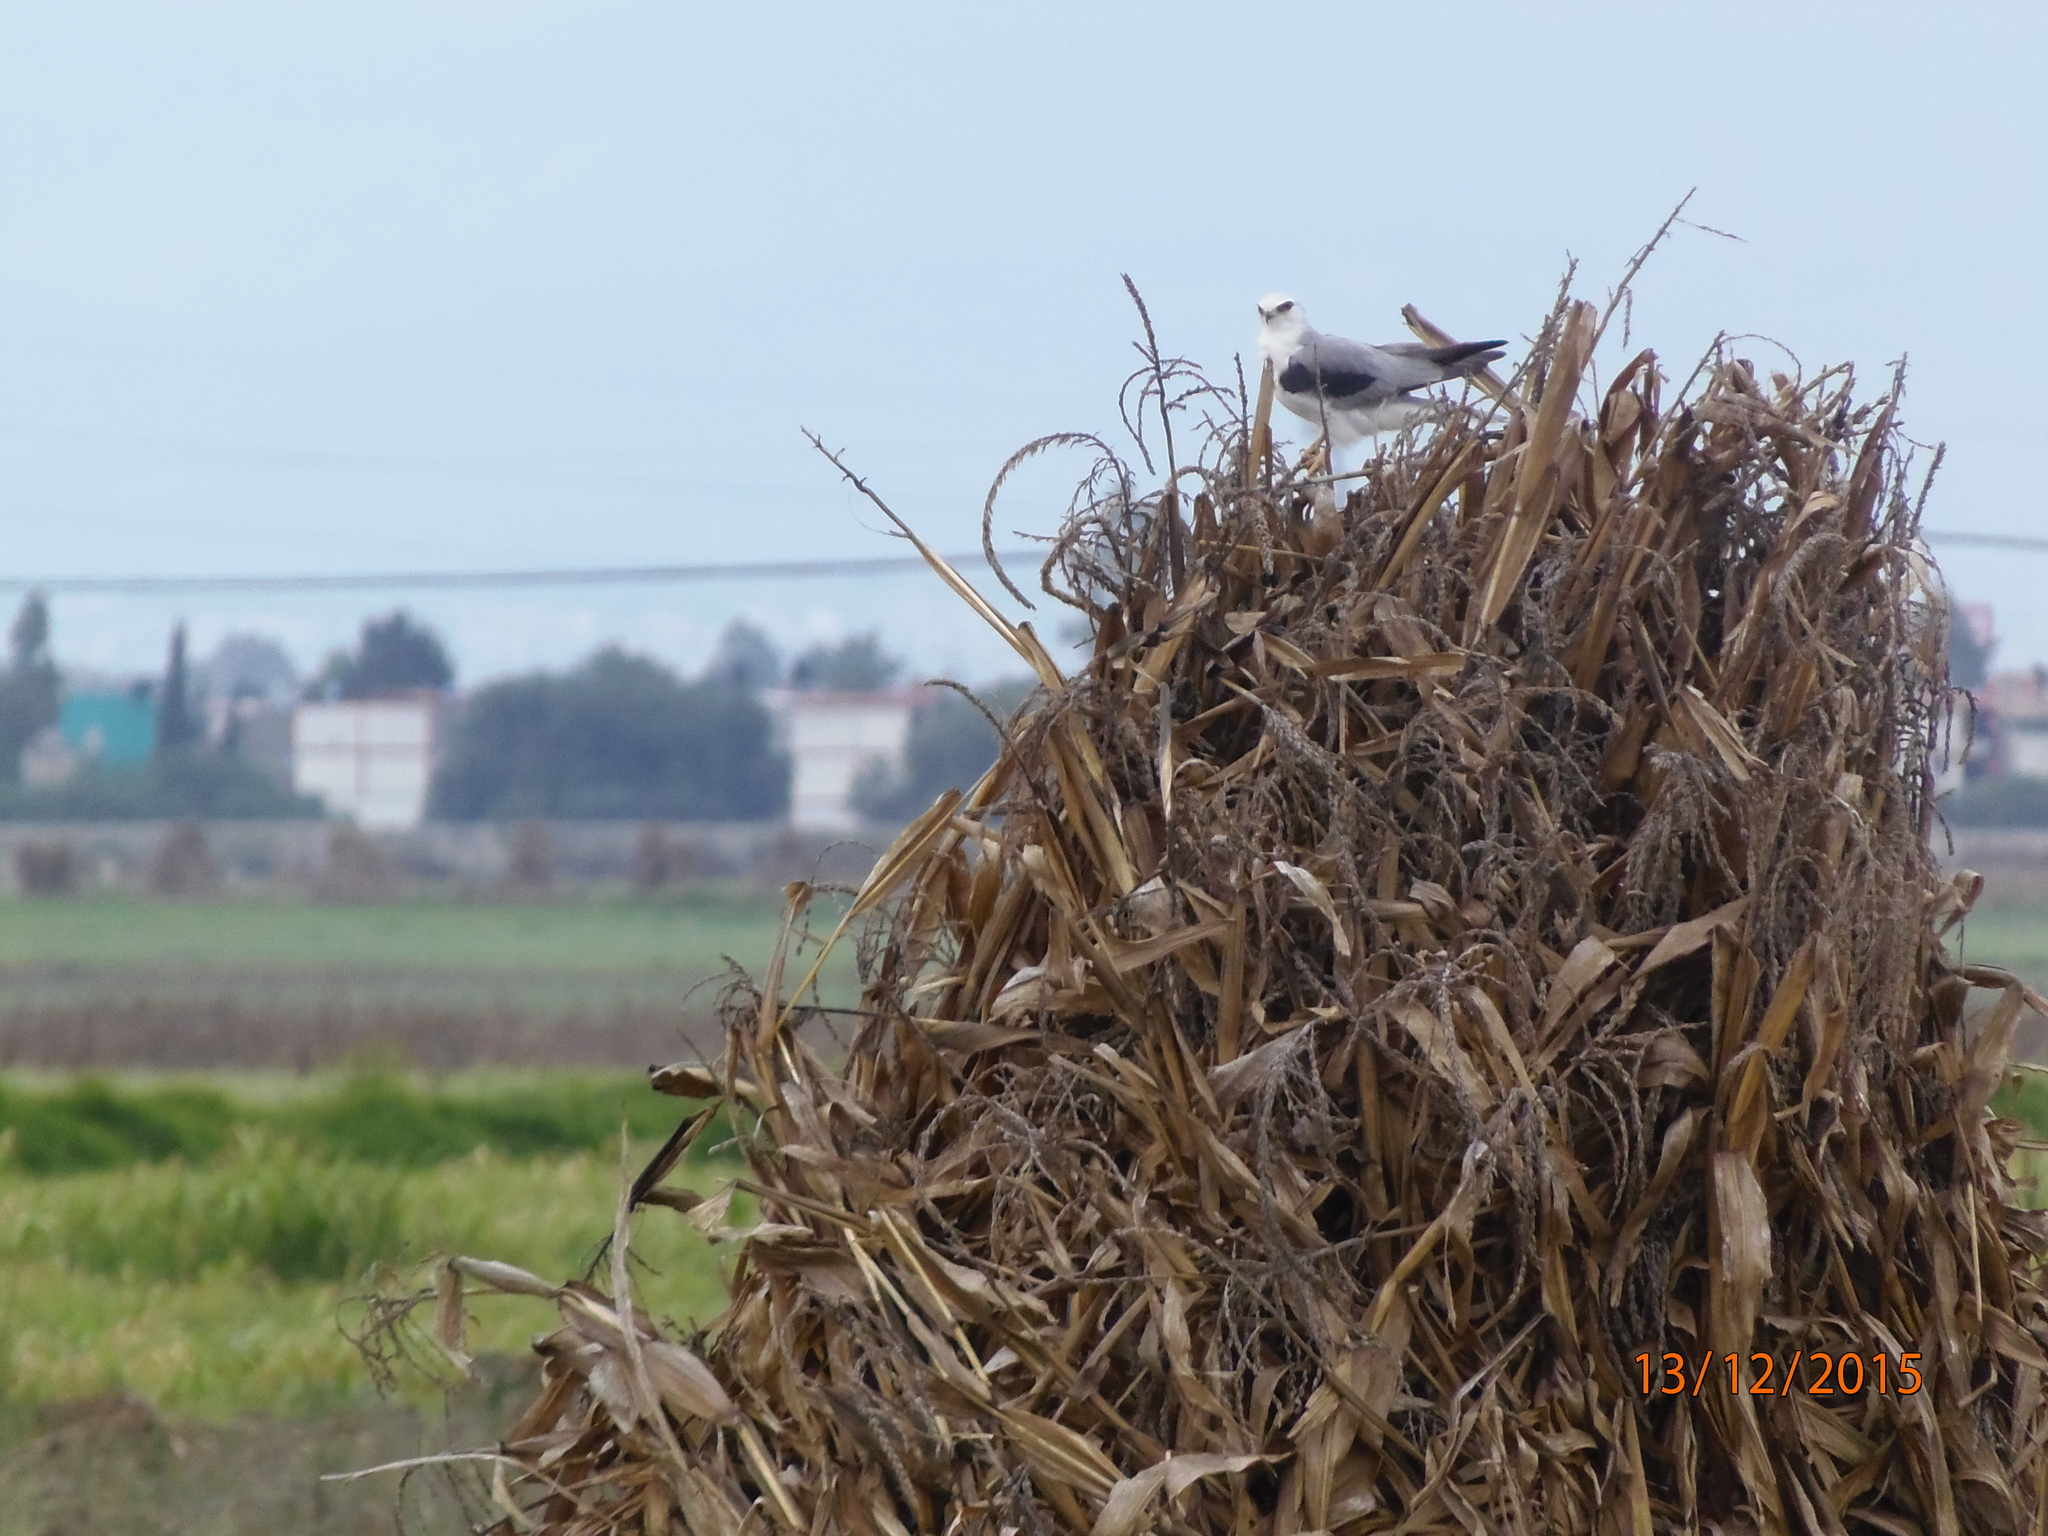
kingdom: Animalia
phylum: Chordata
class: Aves
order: Accipitriformes
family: Accipitridae
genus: Elanus
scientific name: Elanus leucurus
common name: White-tailed kite
